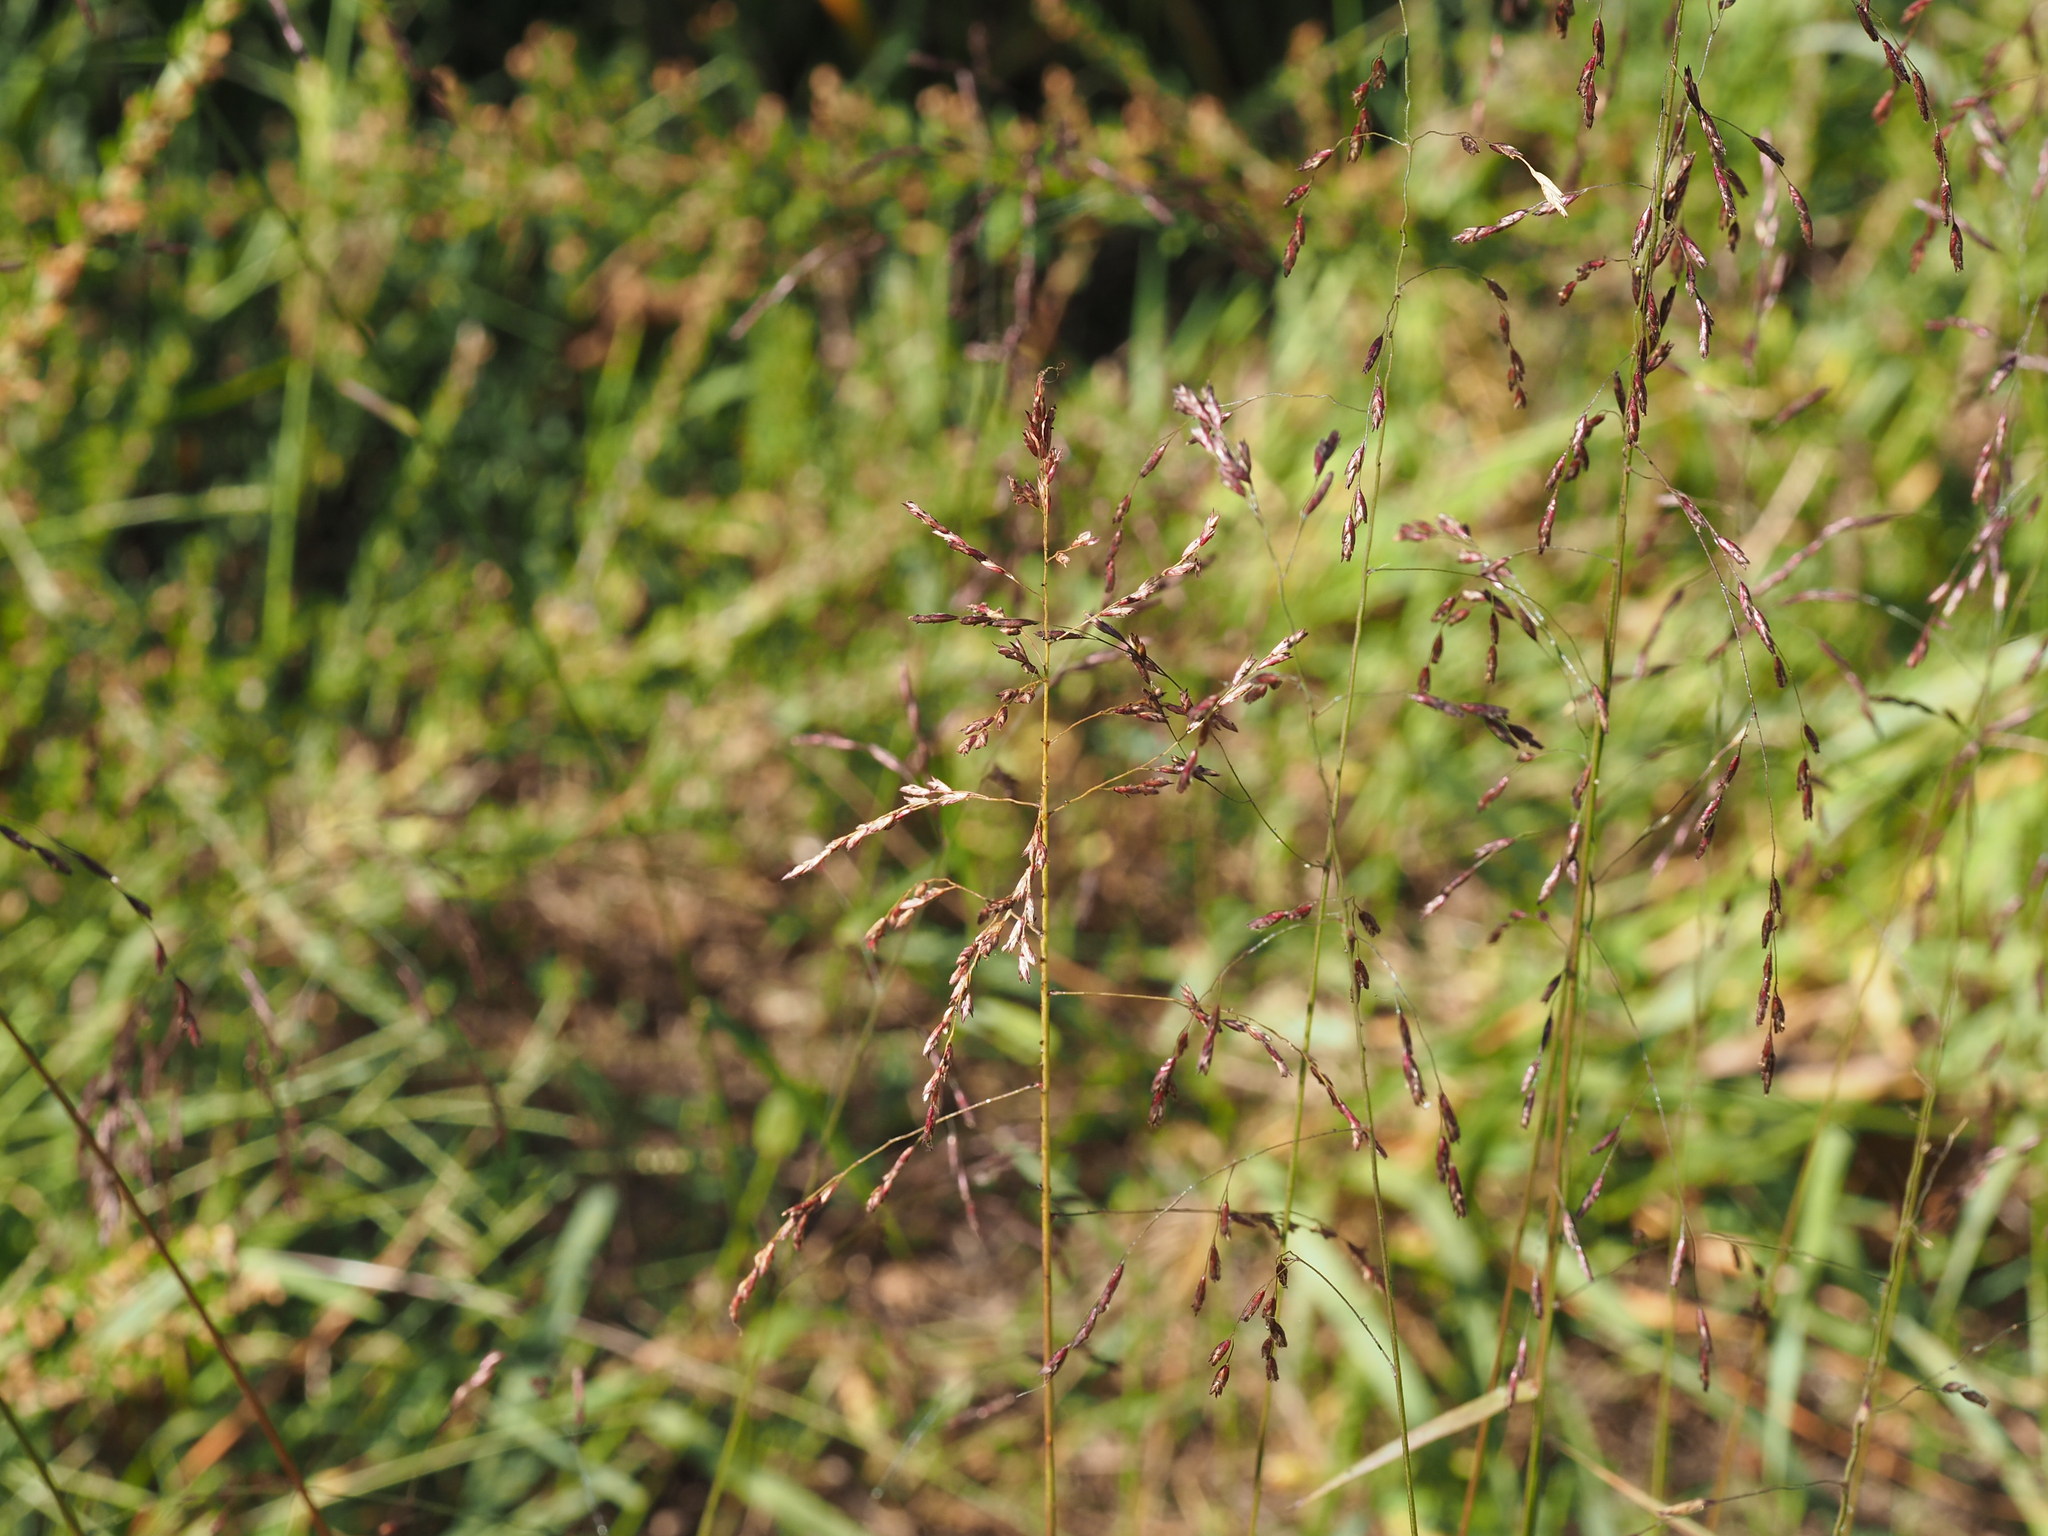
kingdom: Plantae
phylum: Tracheophyta
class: Liliopsida
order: Poales
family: Poaceae
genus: Tridens
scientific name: Tridens flavus
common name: Purpletop
